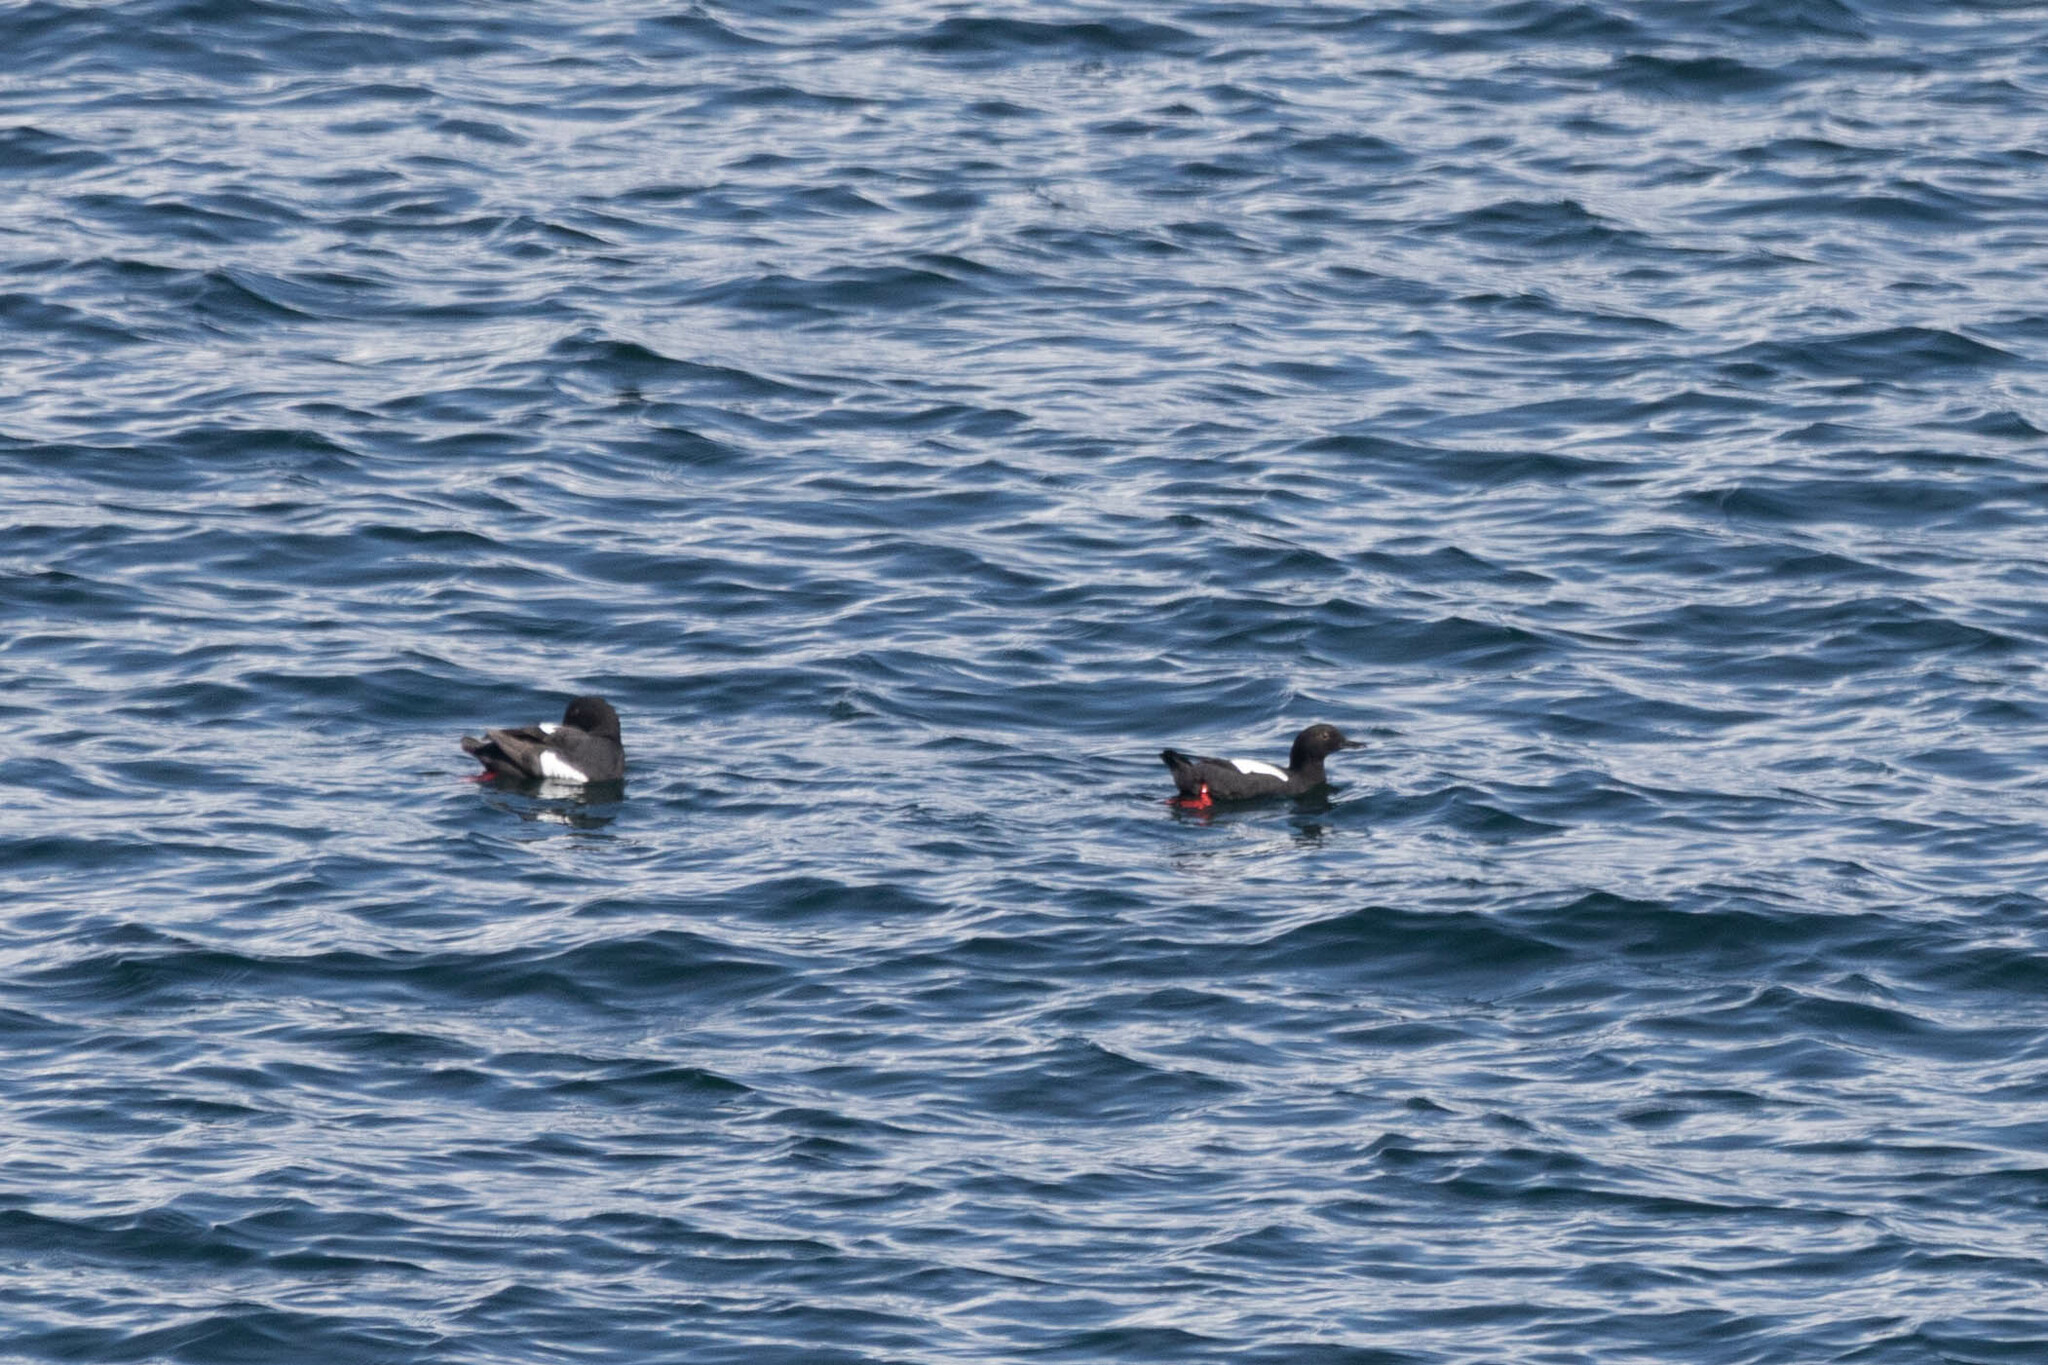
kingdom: Animalia
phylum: Chordata
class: Aves
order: Charadriiformes
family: Alcidae
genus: Cepphus
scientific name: Cepphus columba
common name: Pigeon guillemot
